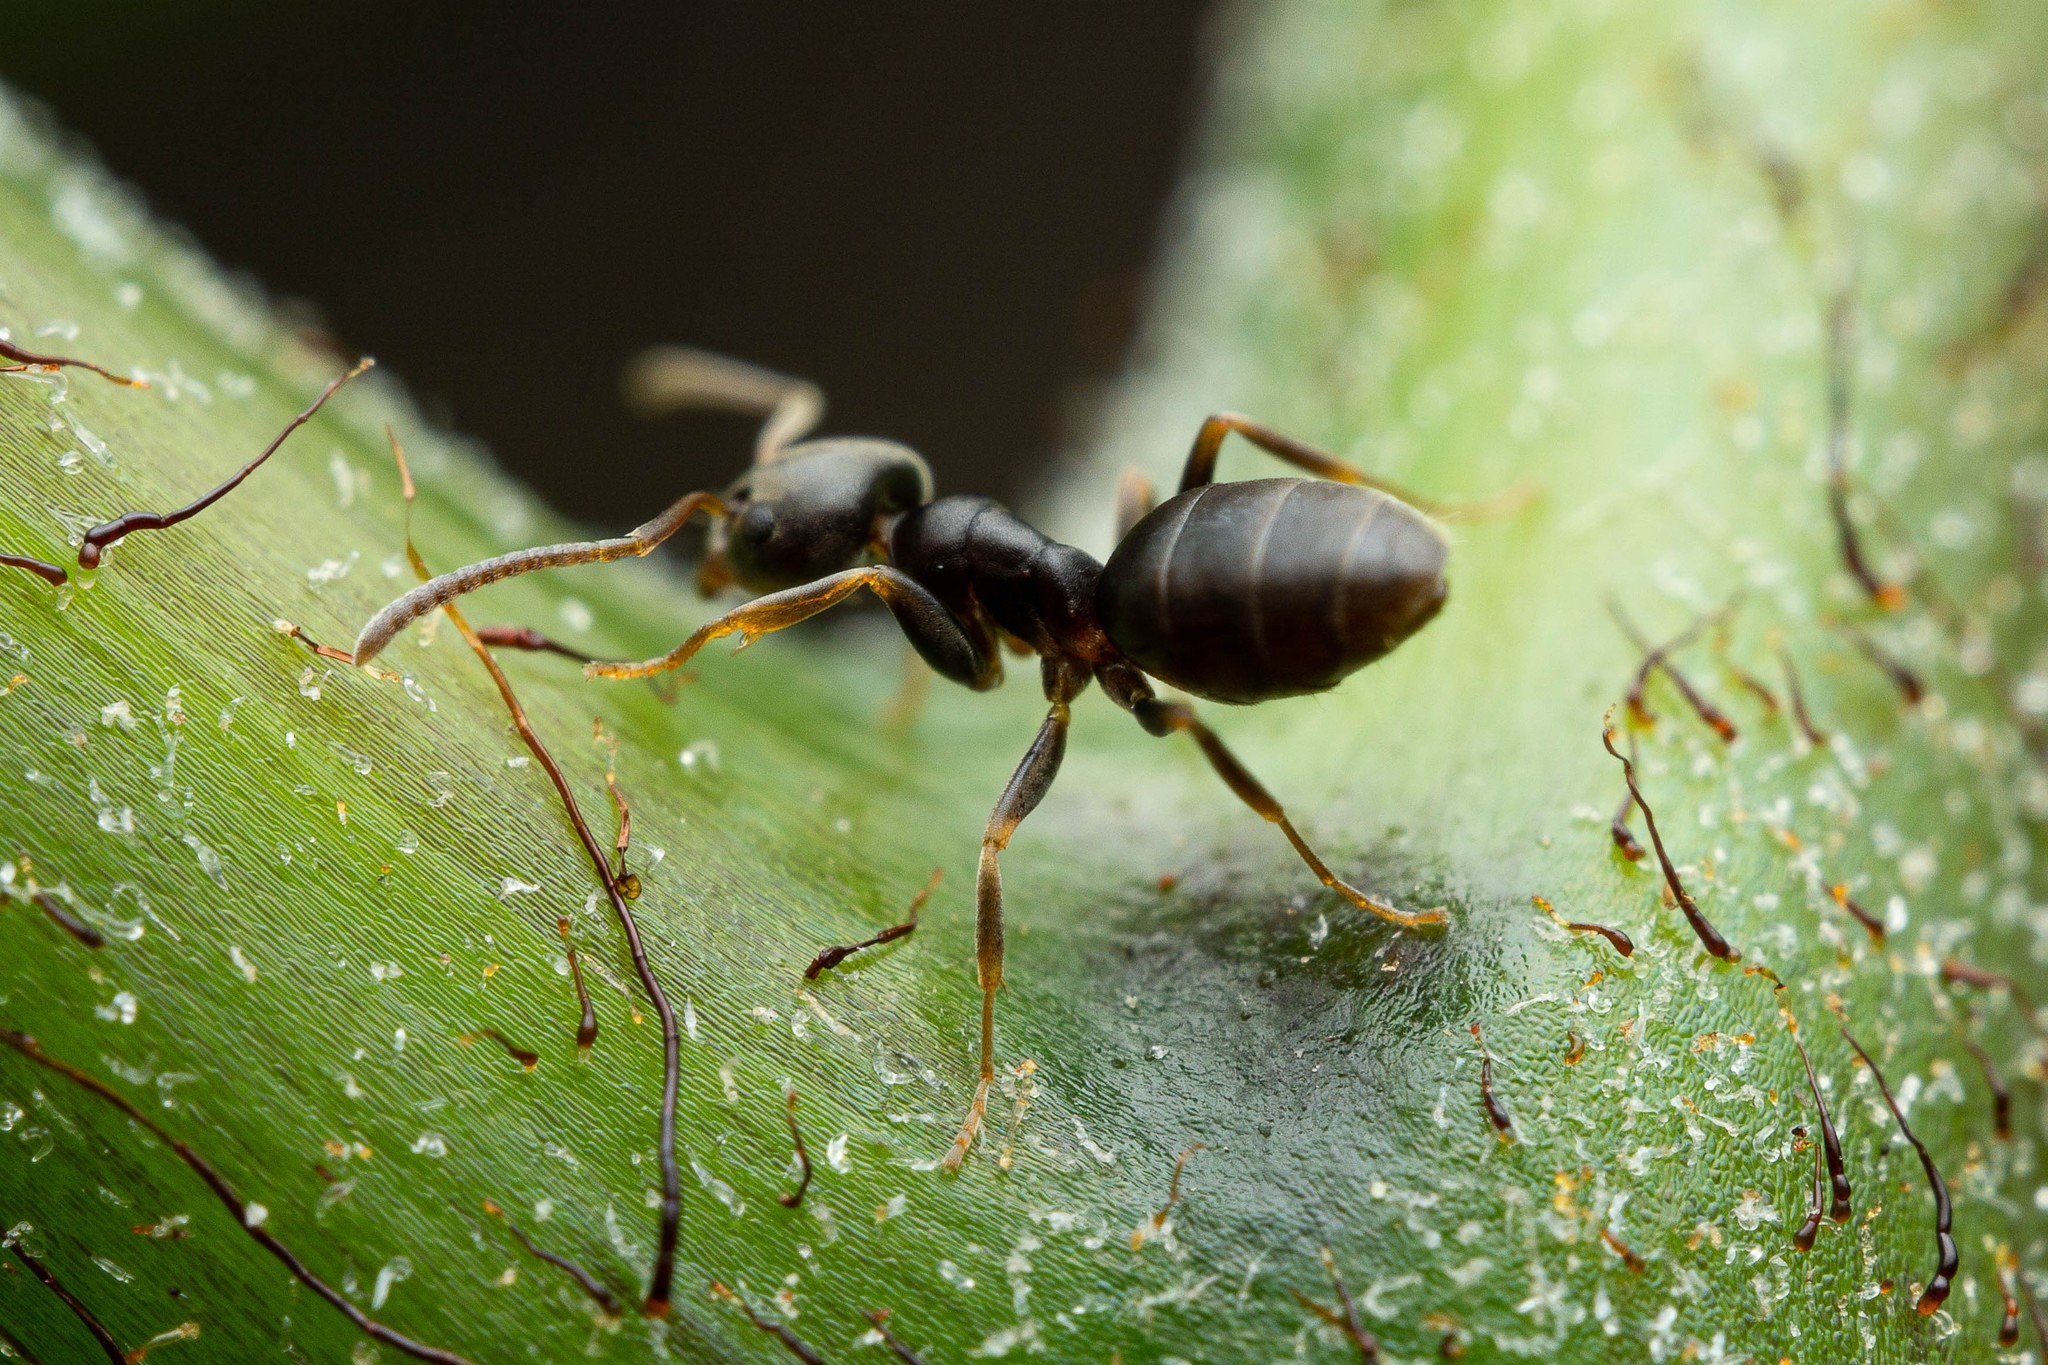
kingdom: Animalia
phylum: Arthropoda
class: Insecta
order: Hymenoptera
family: Formicidae
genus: Tapinoma
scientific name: Tapinoma sessile
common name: Odorous house ant
